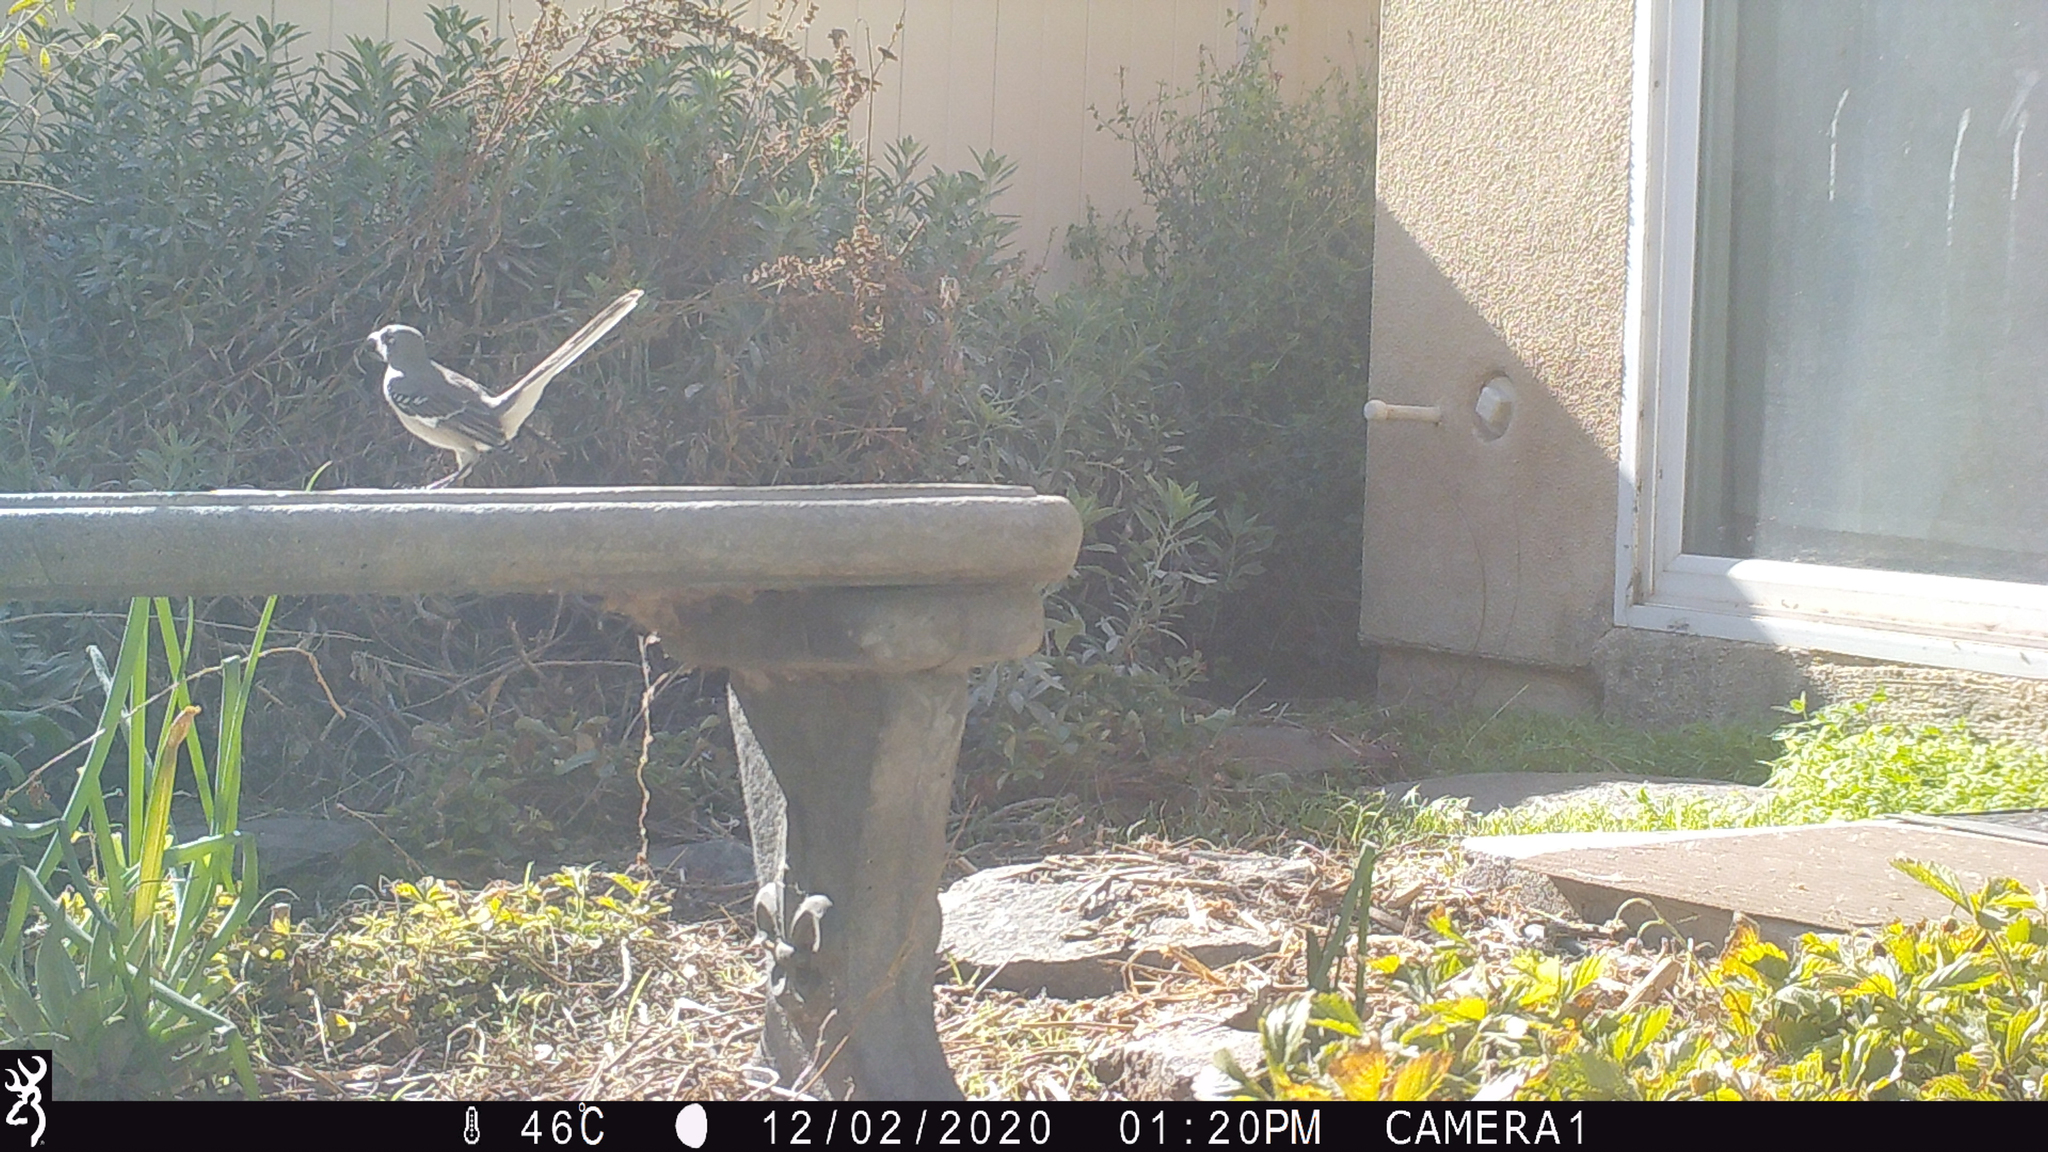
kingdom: Animalia
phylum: Chordata
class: Aves
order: Passeriformes
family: Mimidae
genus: Mimus
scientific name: Mimus polyglottos
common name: Northern mockingbird
